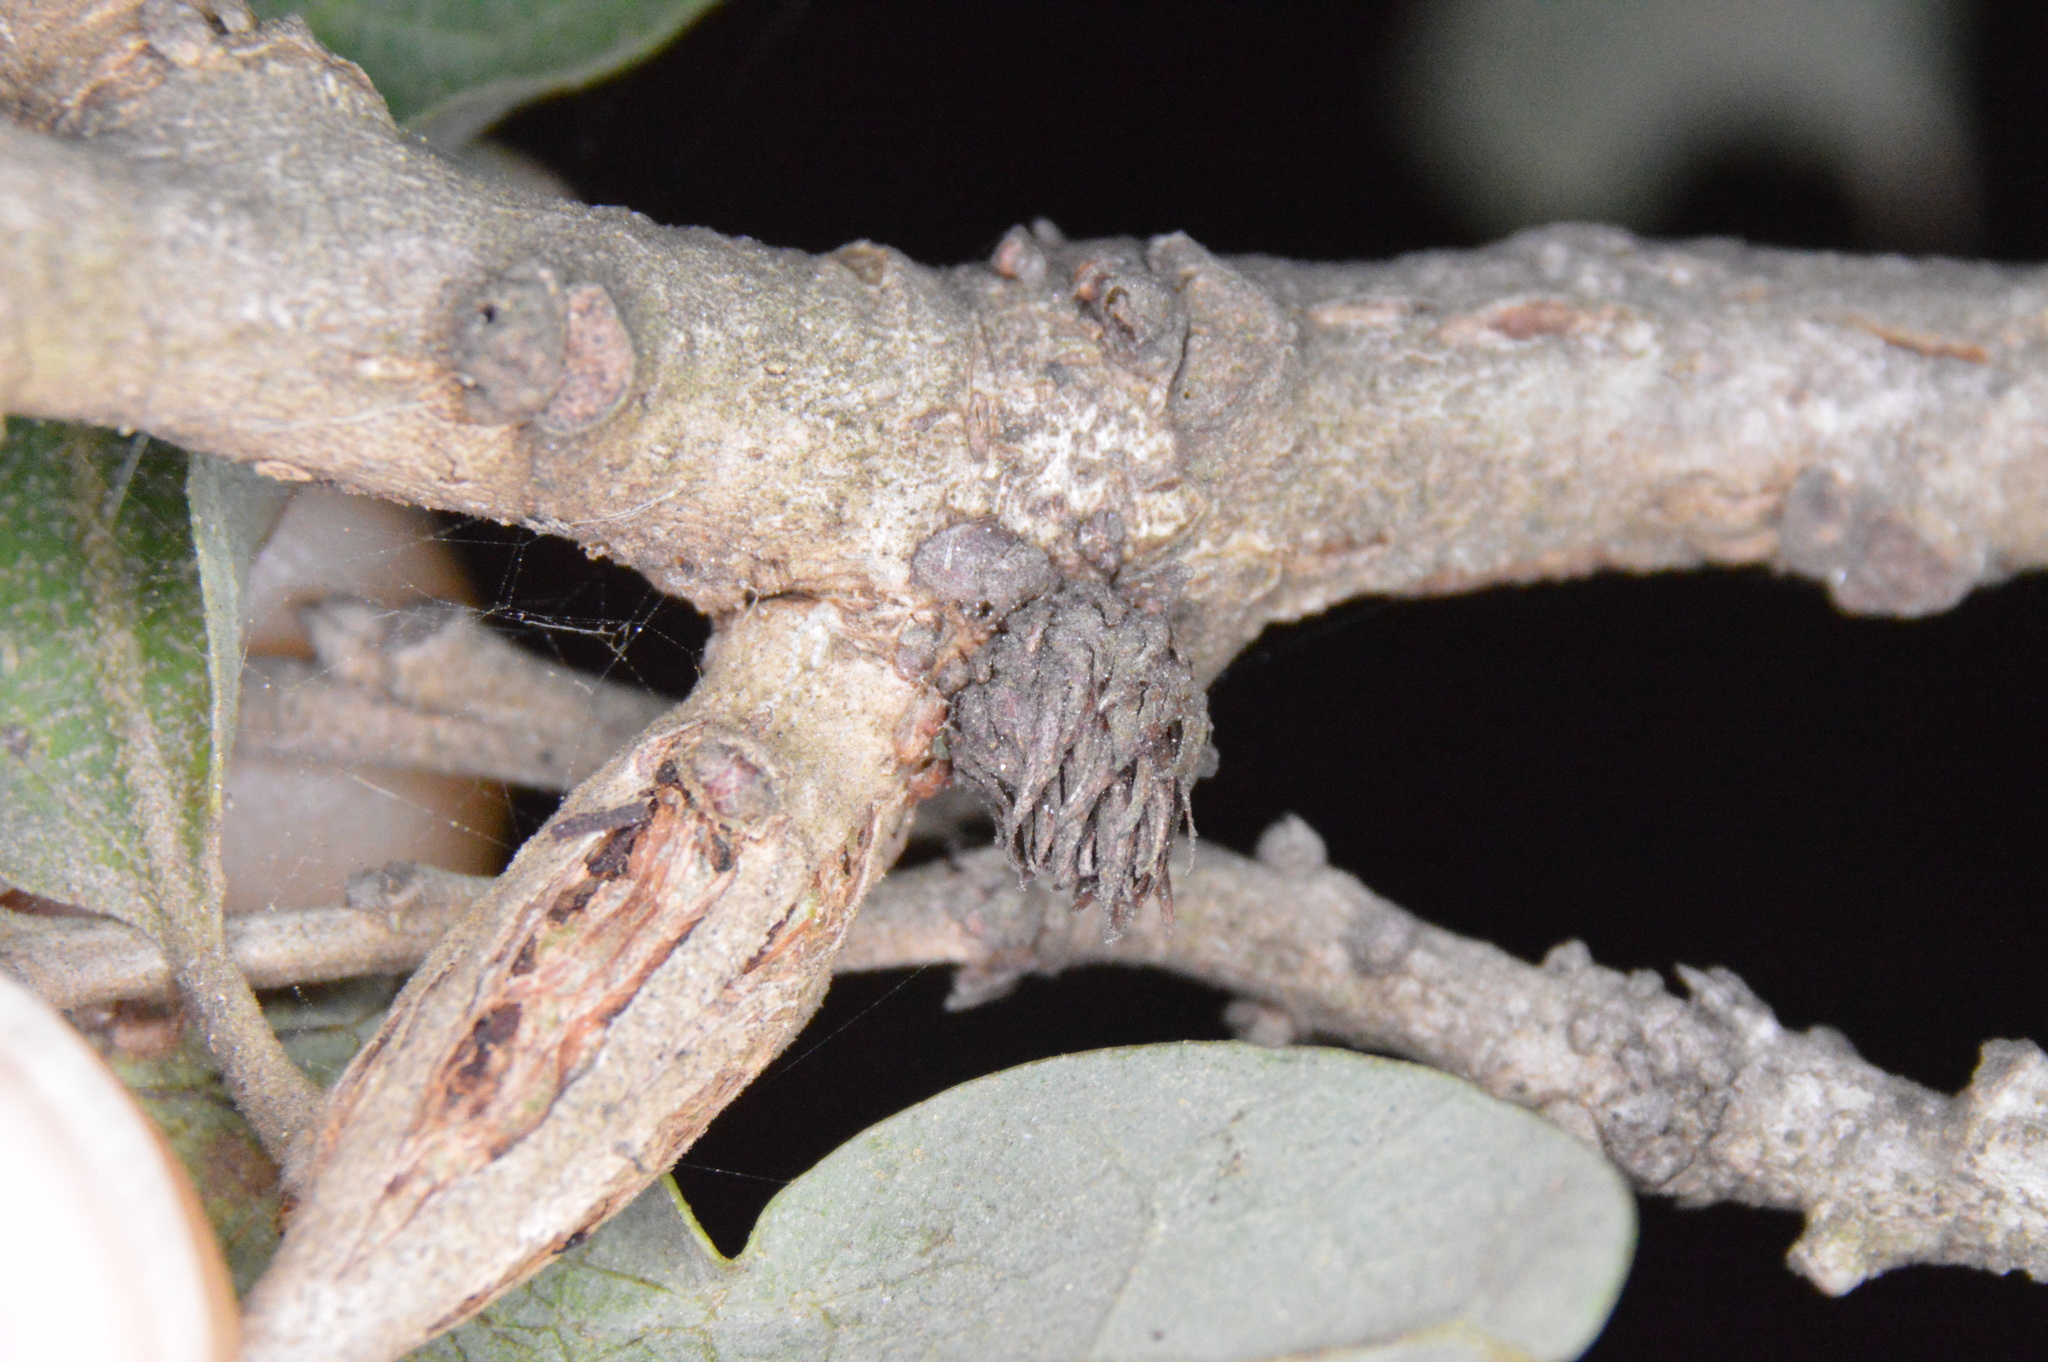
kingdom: Animalia
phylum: Arthropoda
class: Insecta
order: Hymenoptera
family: Cynipidae
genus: Andricus
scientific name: Andricus quercusfoliatus
